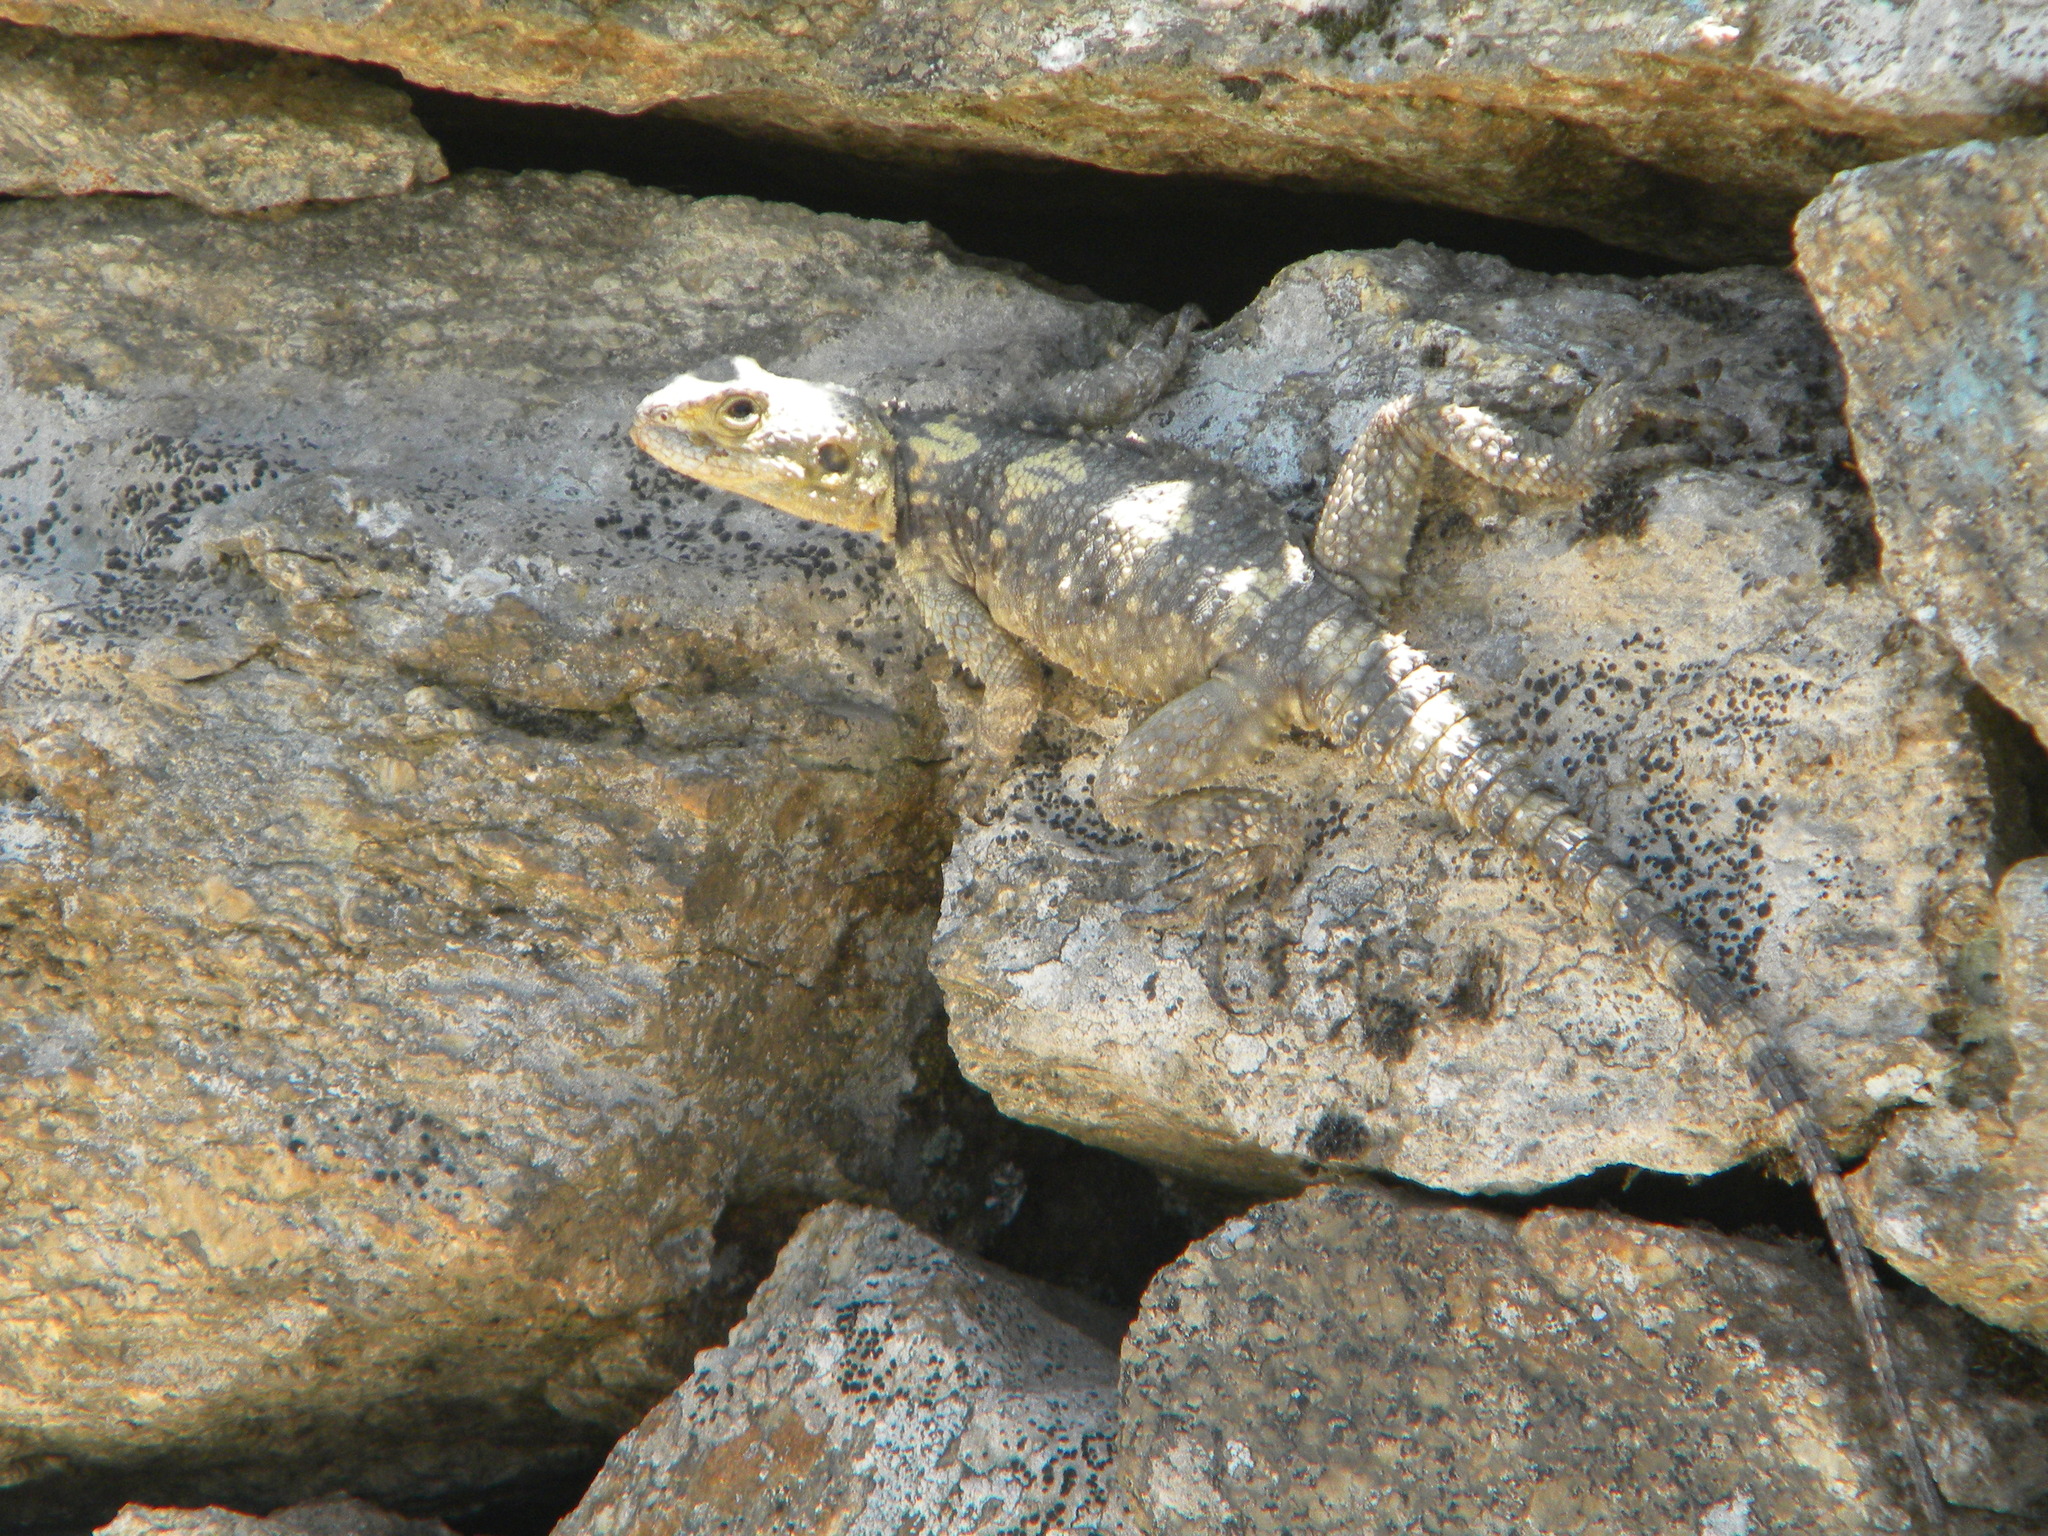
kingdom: Animalia
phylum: Chordata
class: Squamata
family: Agamidae
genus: Stellagama
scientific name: Stellagama stellio
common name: Starred agama
